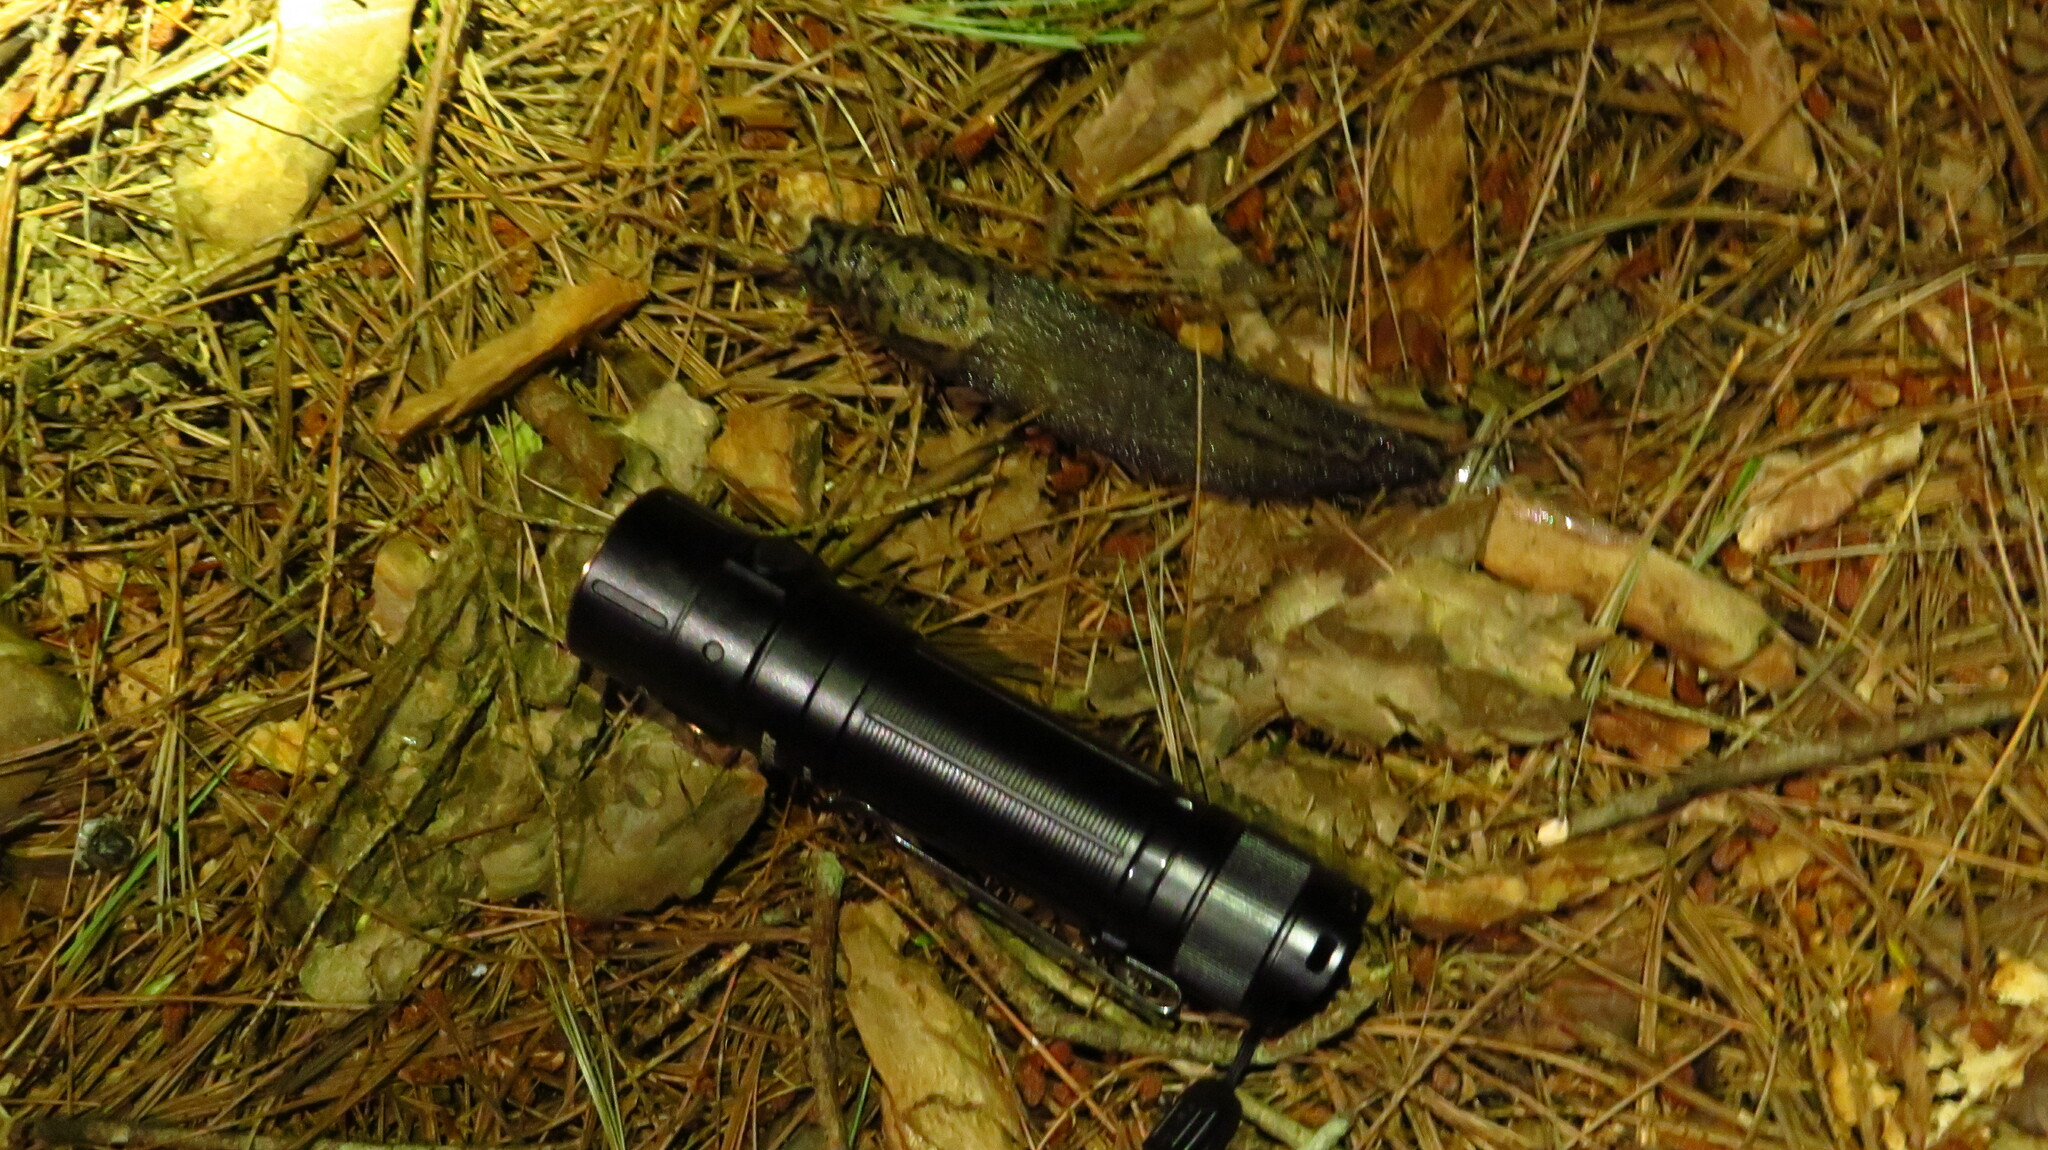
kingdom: Animalia
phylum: Mollusca
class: Gastropoda
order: Stylommatophora
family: Limacidae
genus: Limax
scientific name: Limax maximus
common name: Great grey slug
